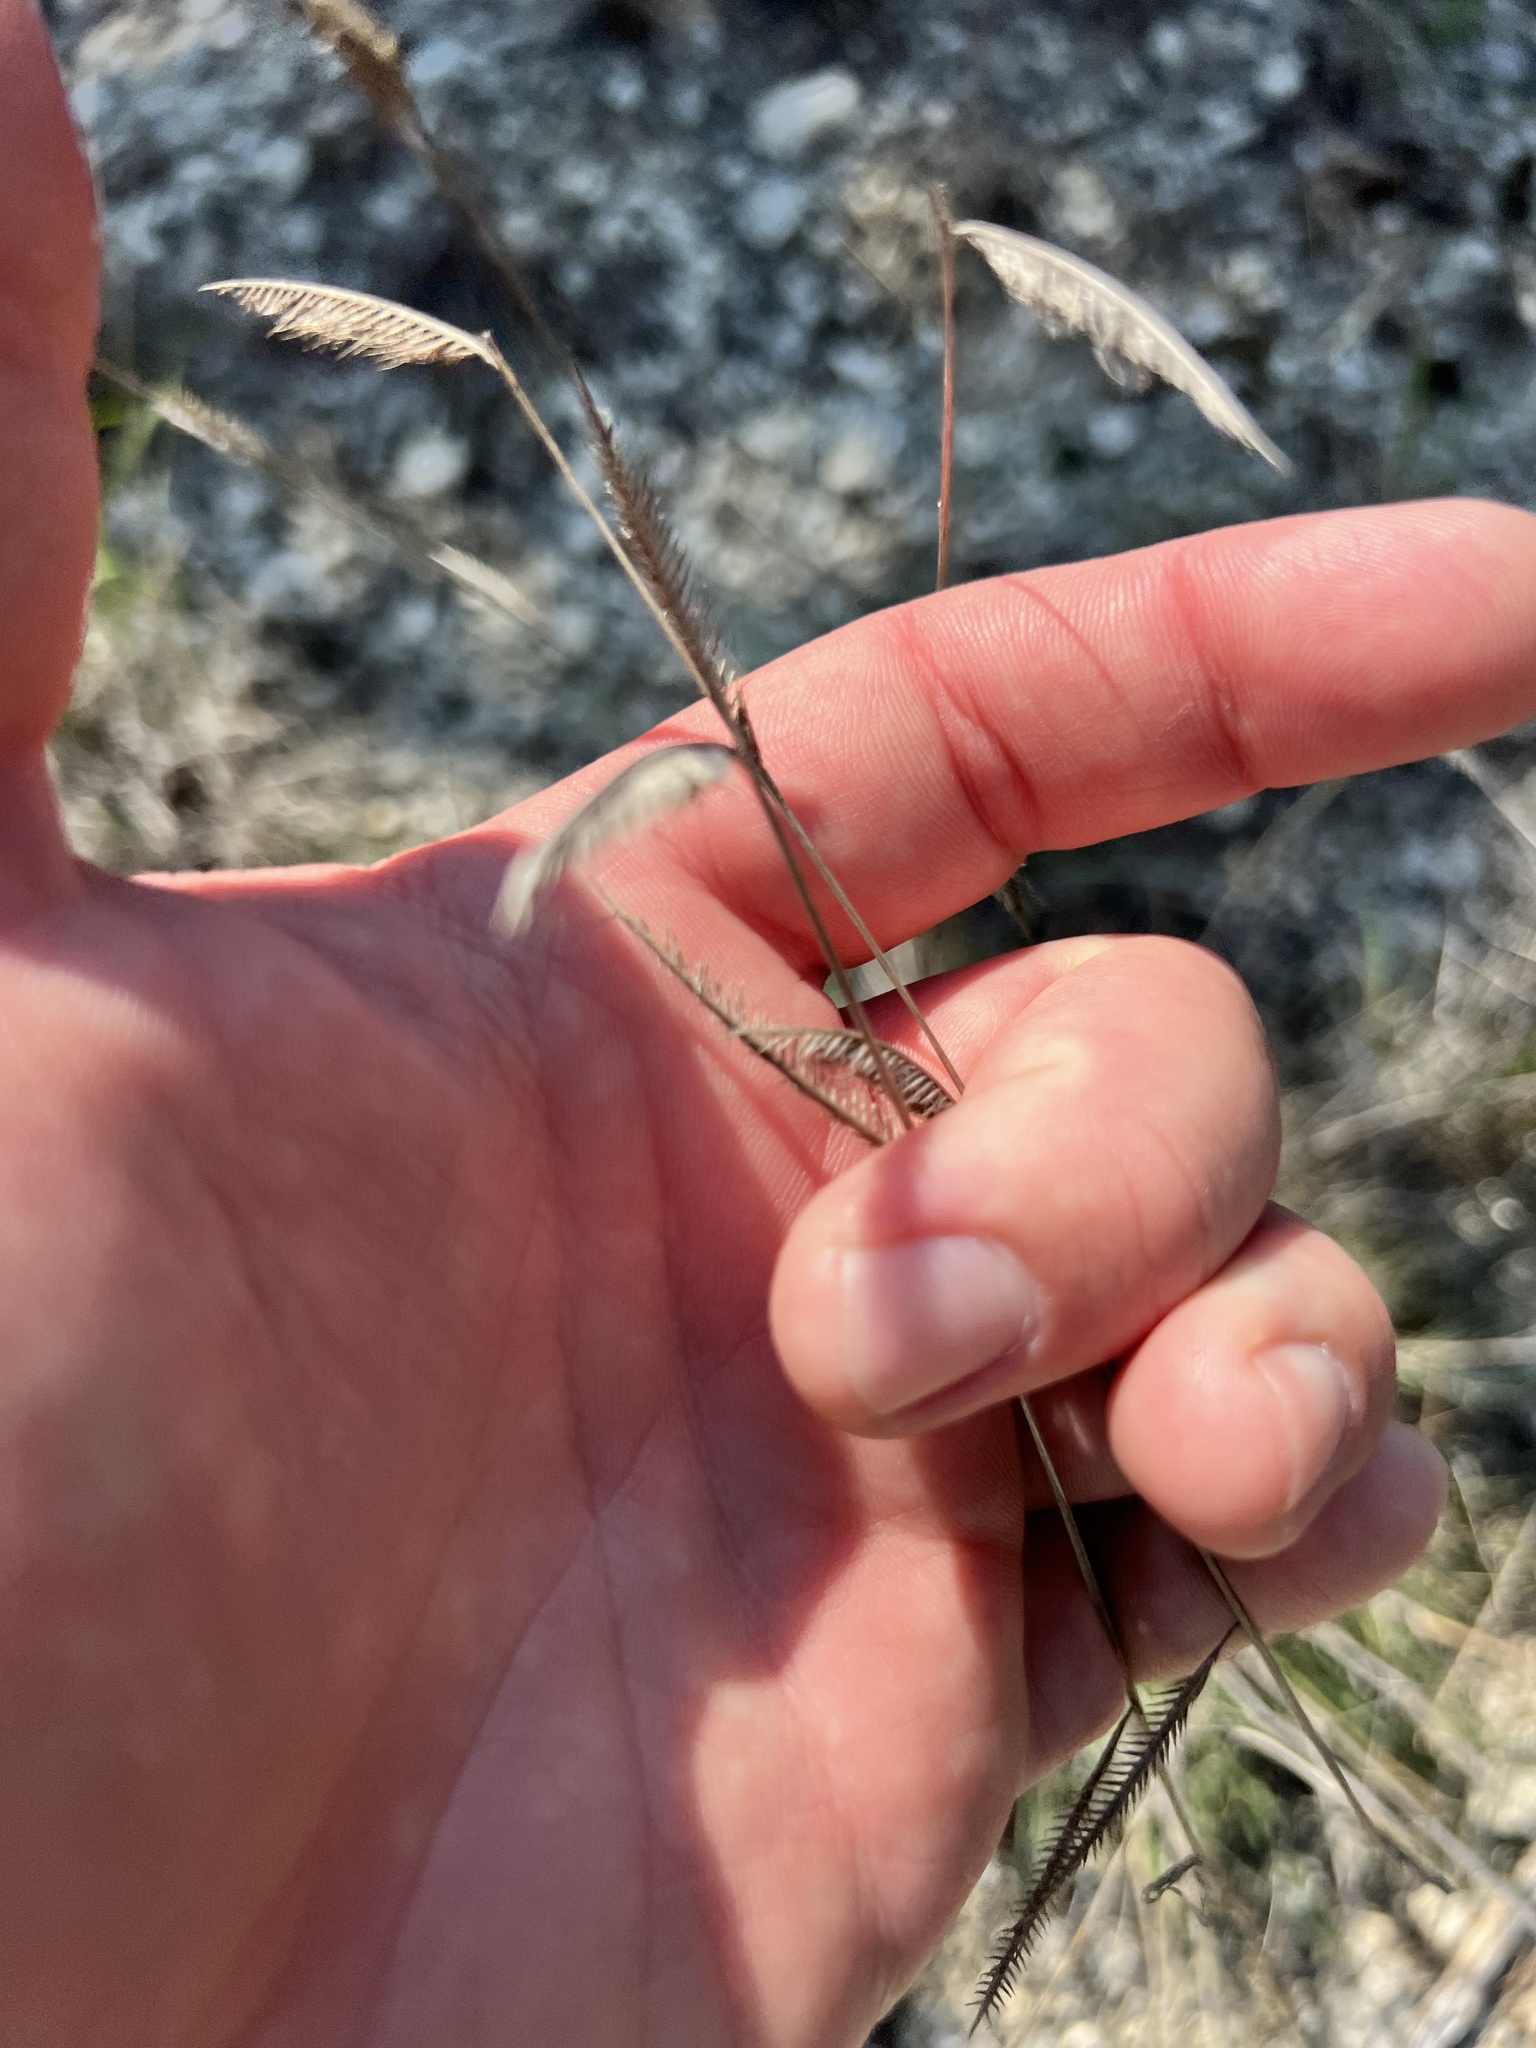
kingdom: Plantae
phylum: Tracheophyta
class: Liliopsida
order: Poales
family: Poaceae
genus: Bouteloua
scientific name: Bouteloua pectinata
